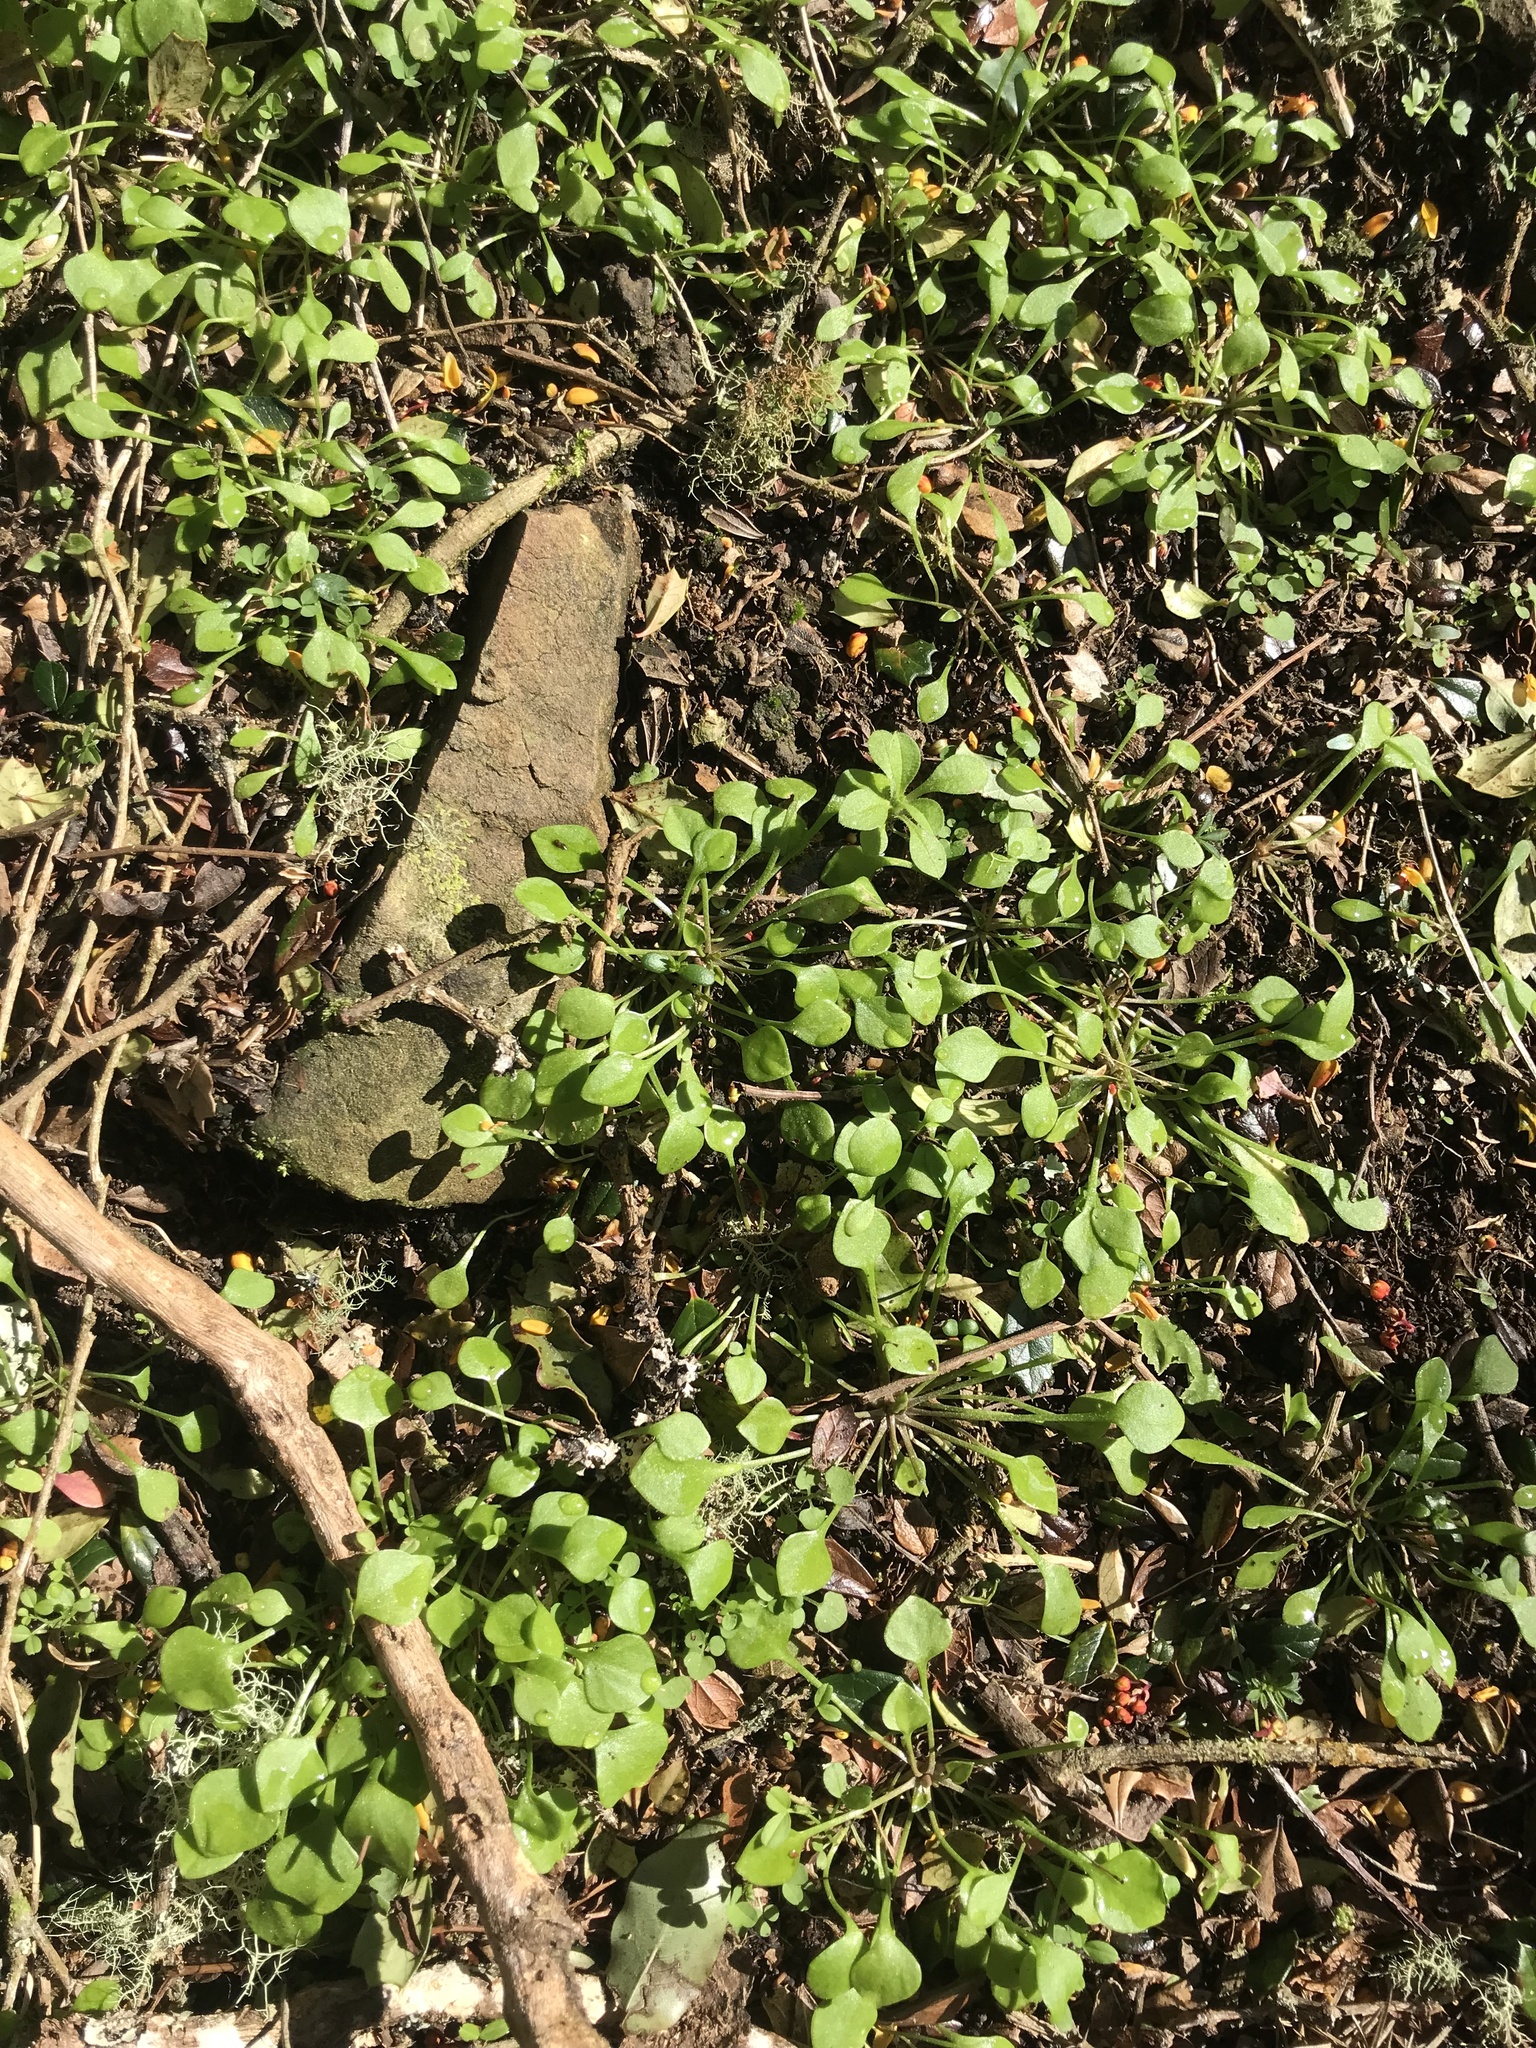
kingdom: Plantae
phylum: Tracheophyta
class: Magnoliopsida
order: Caryophyllales
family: Montiaceae
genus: Claytonia
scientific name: Claytonia perfoliata
